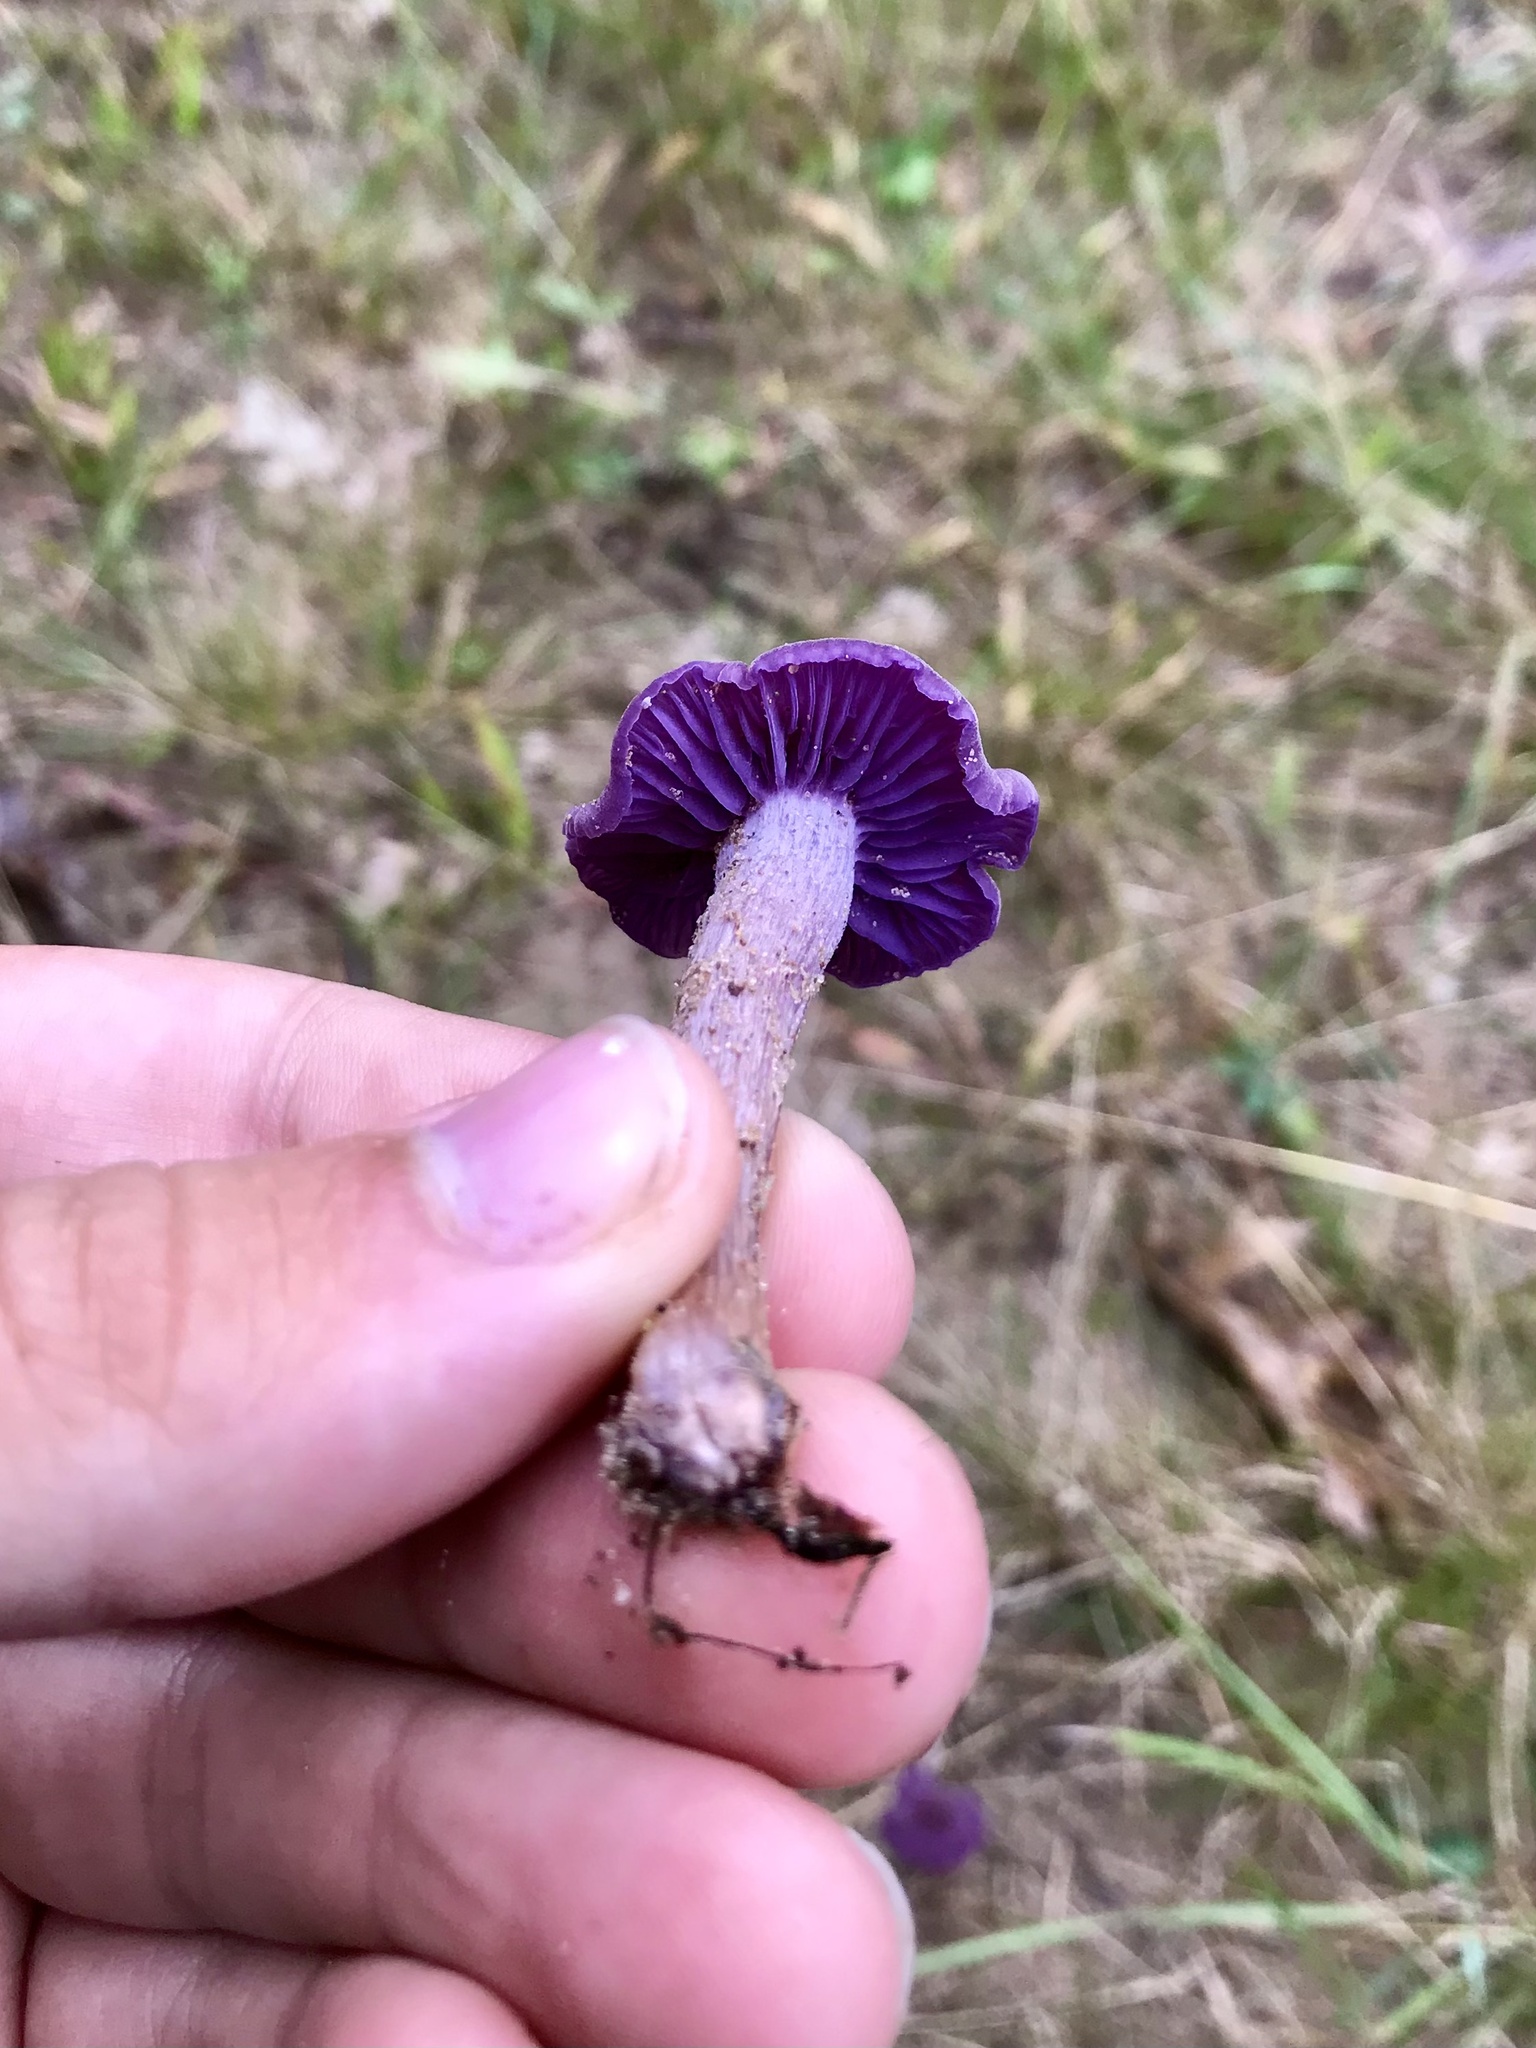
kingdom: Fungi
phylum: Basidiomycota
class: Agaricomycetes
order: Agaricales
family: Hydnangiaceae
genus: Laccaria
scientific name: Laccaria amethystina
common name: Amethyst deceiver
